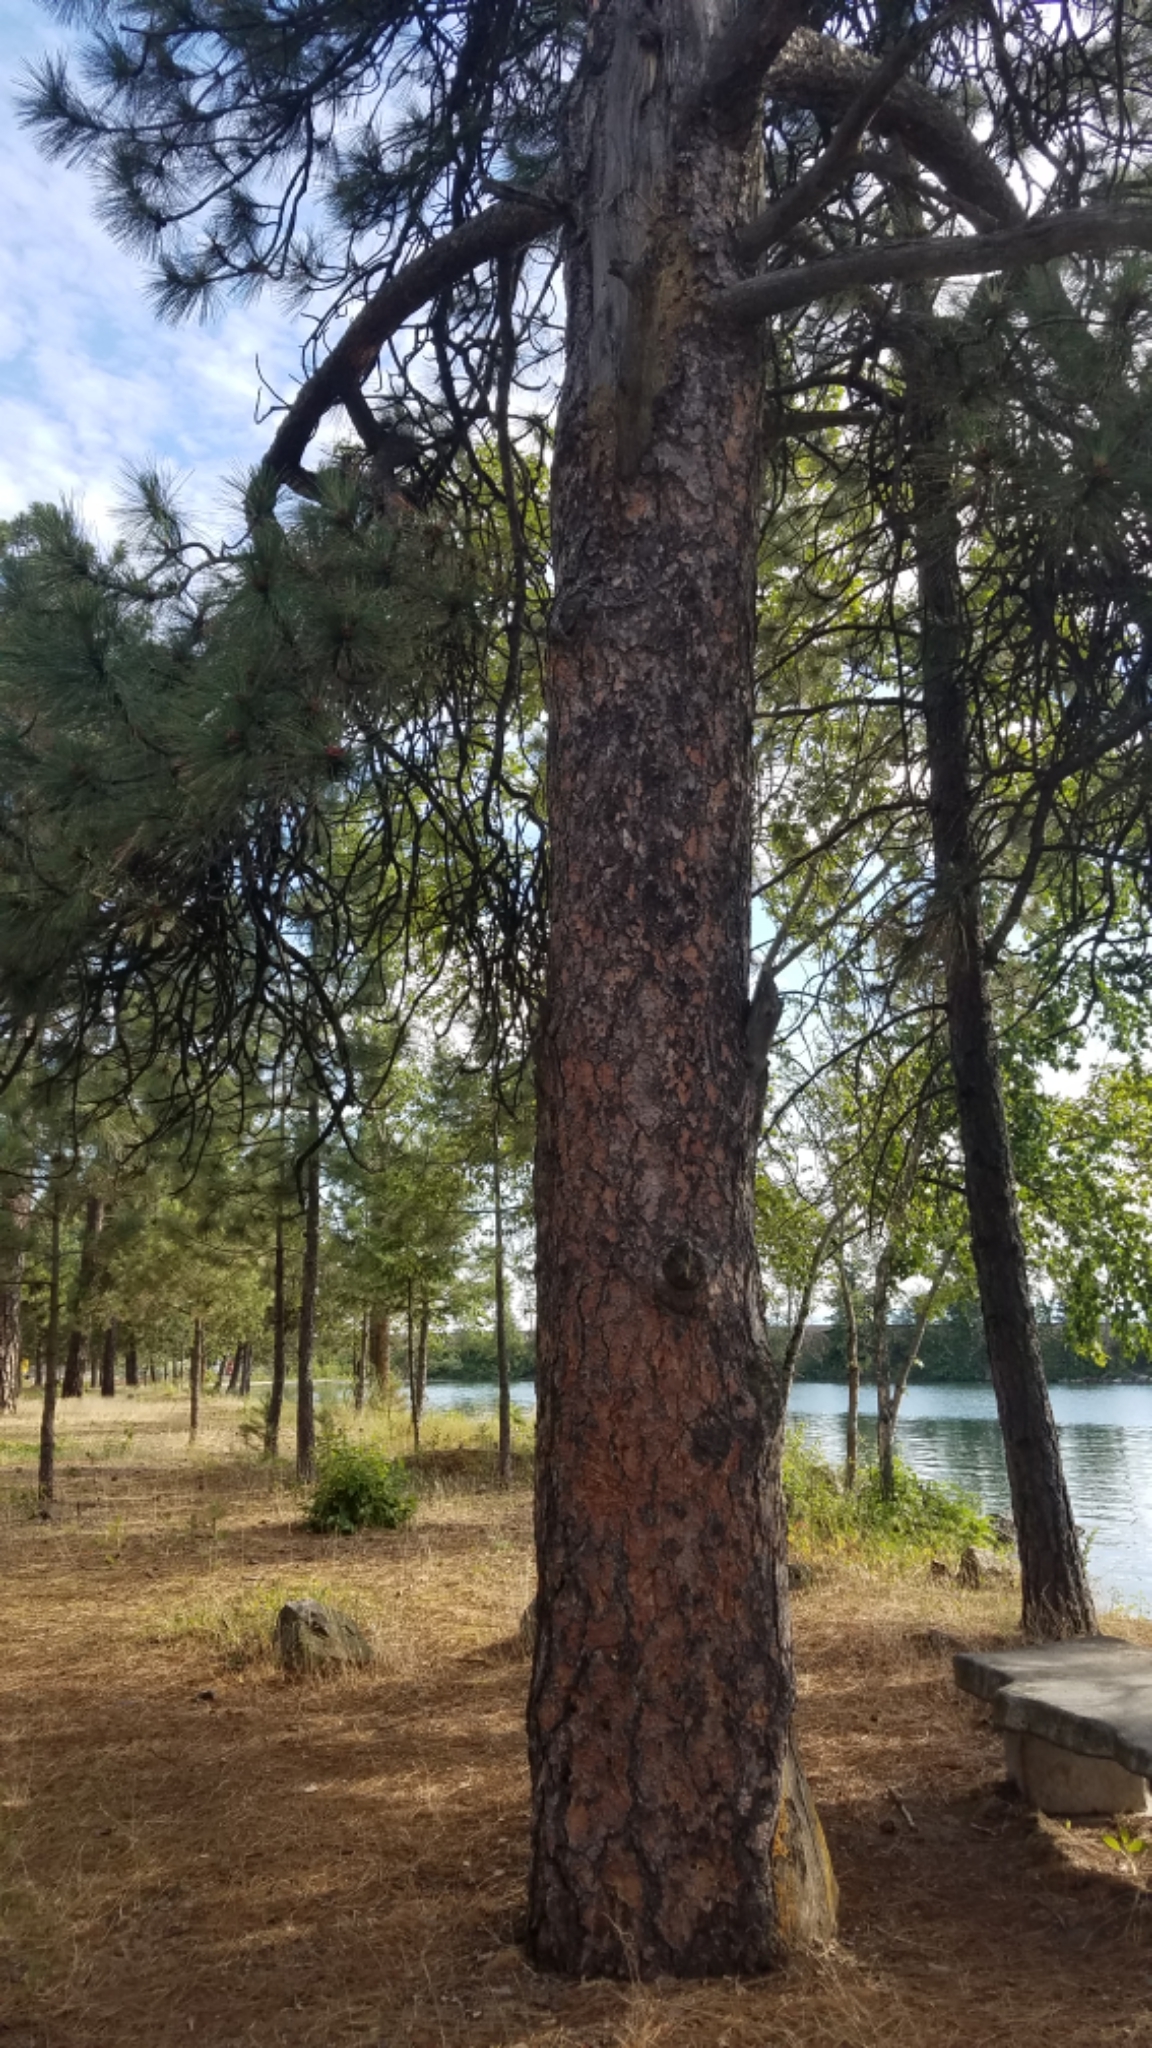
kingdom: Plantae
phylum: Tracheophyta
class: Pinopsida
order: Pinales
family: Pinaceae
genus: Pinus
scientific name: Pinus ponderosa
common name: Western yellow-pine
